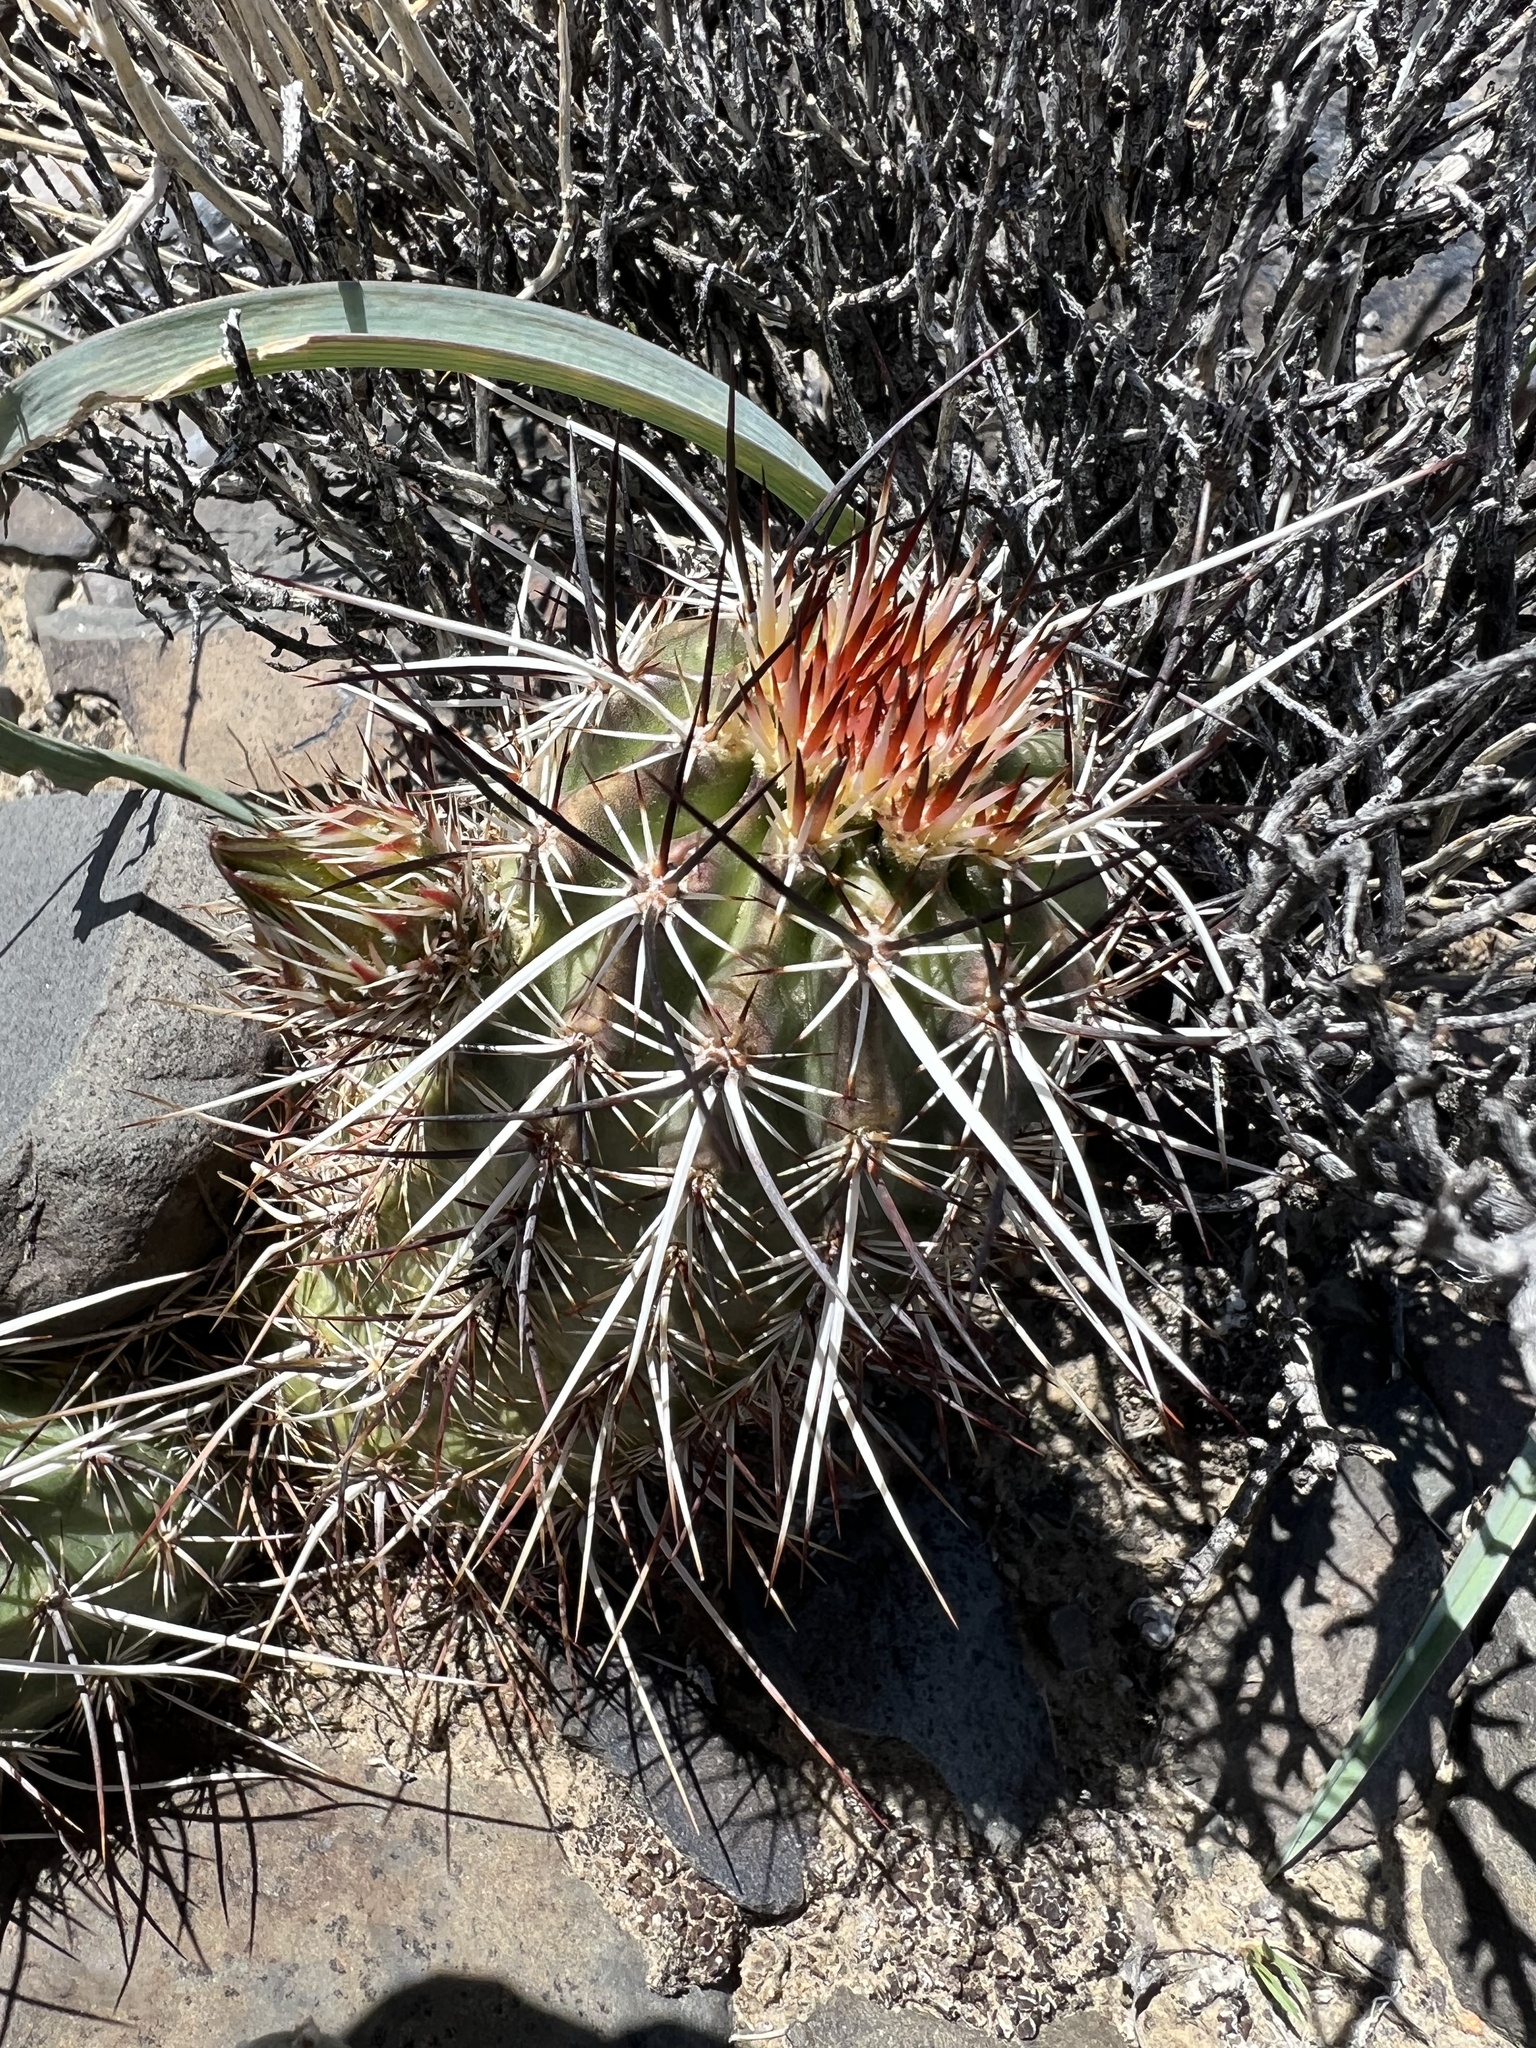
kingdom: Plantae
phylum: Tracheophyta
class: Magnoliopsida
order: Caryophyllales
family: Cactaceae
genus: Echinocereus
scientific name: Echinocereus engelmannii
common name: Engelmann's hedgehog cactus
